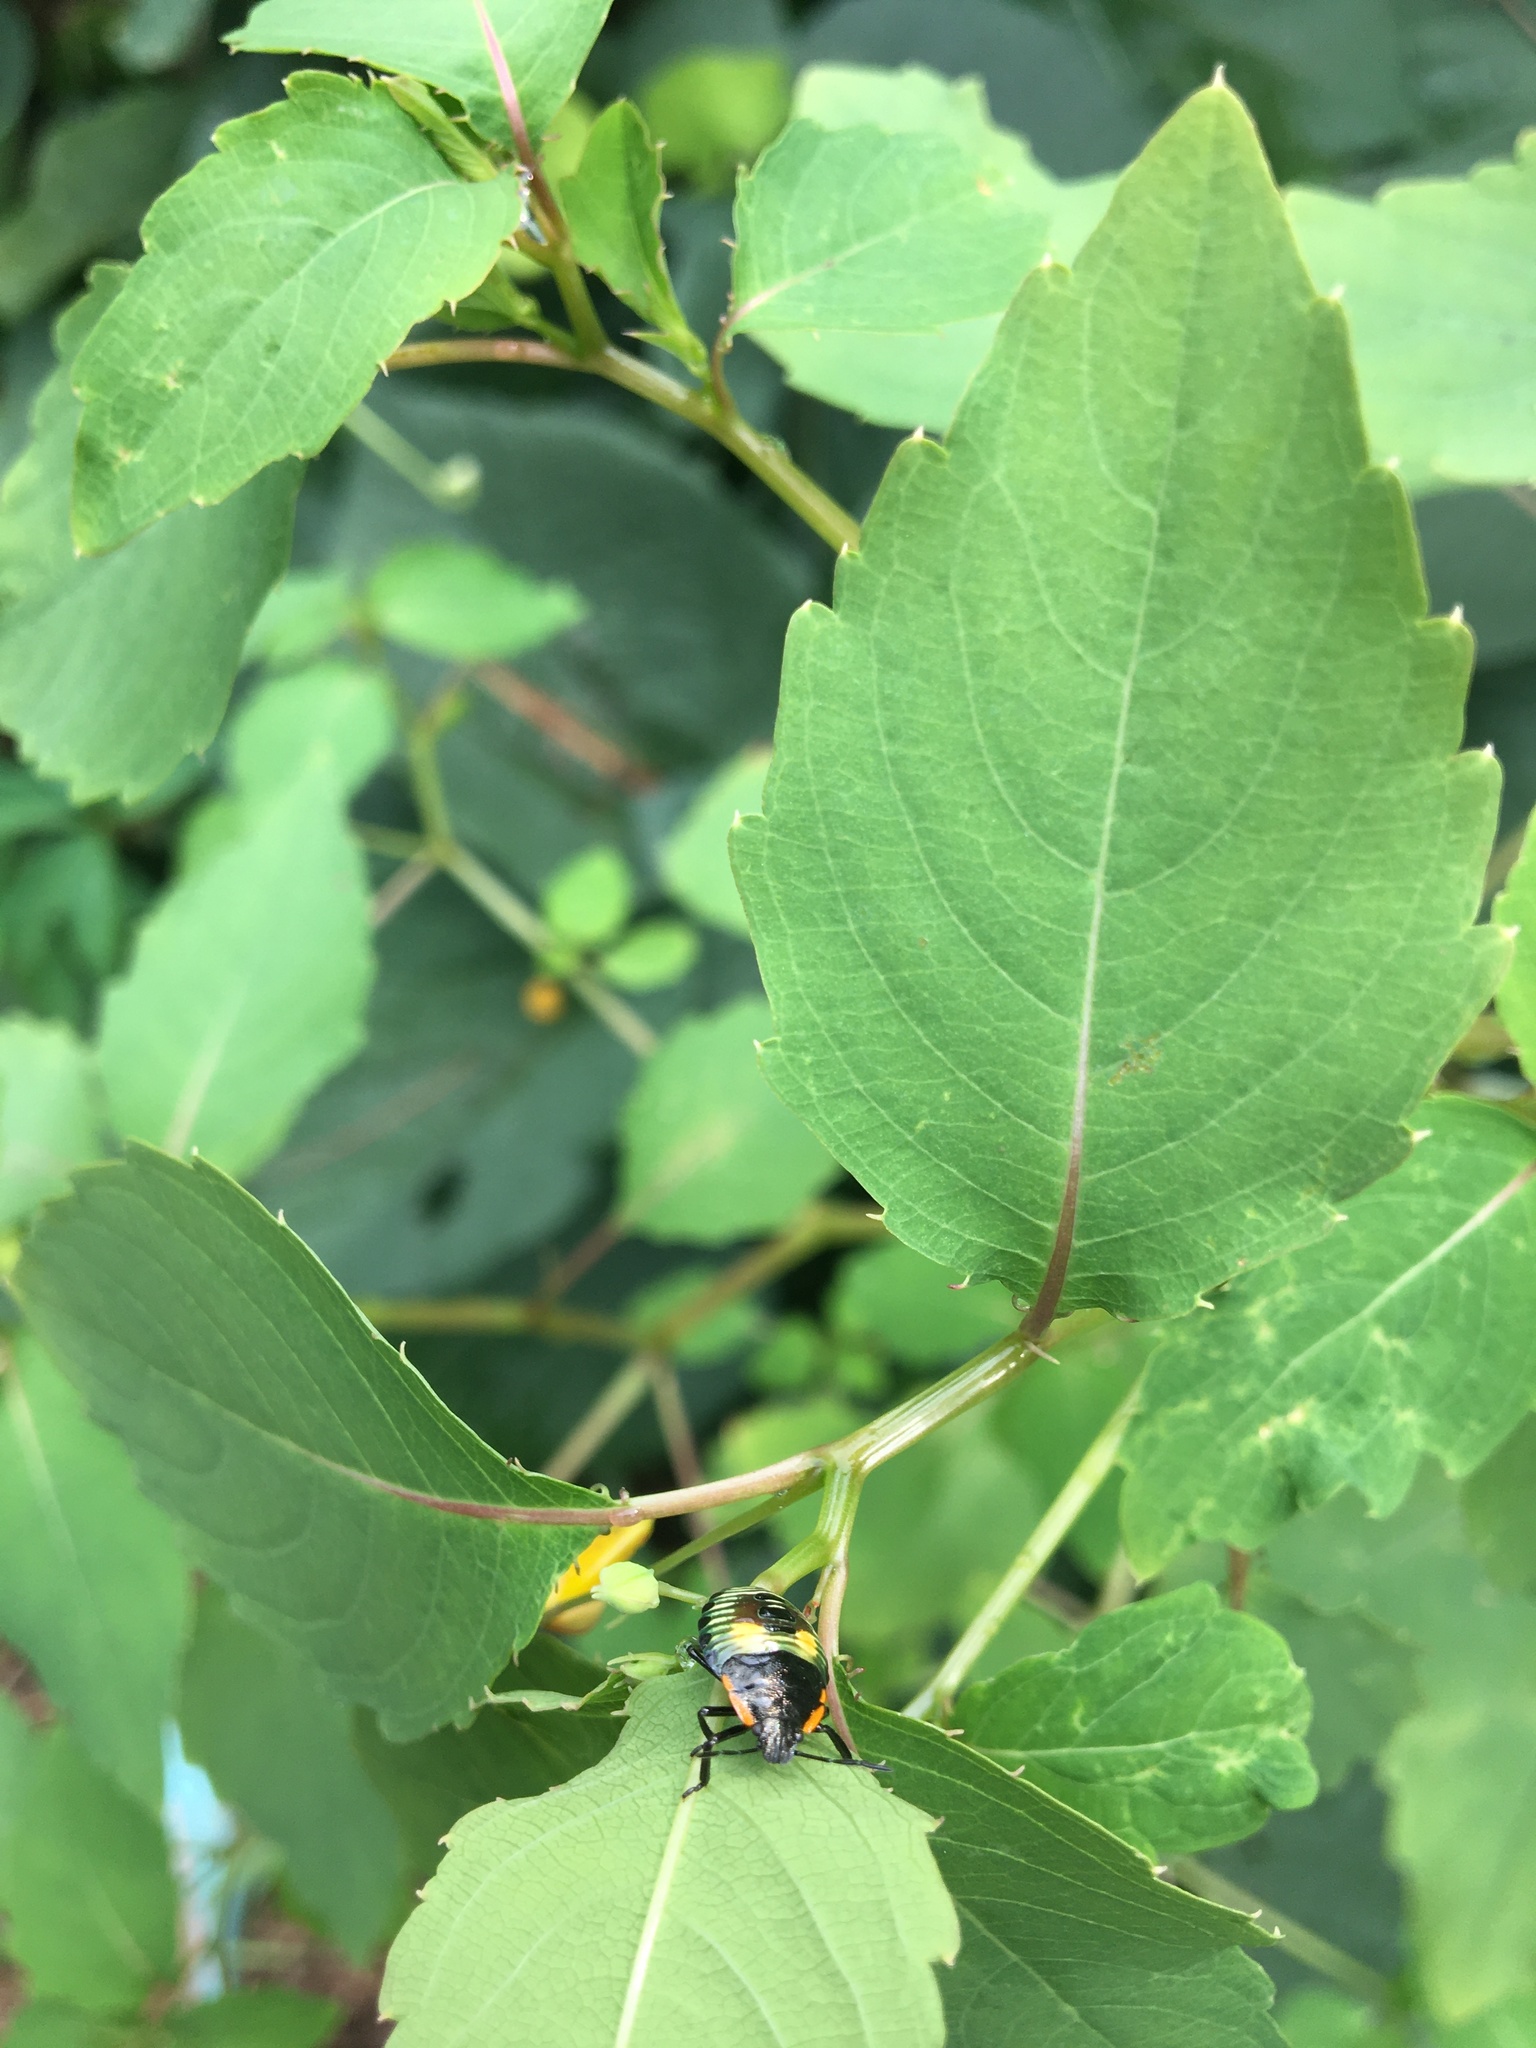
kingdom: Animalia
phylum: Arthropoda
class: Insecta
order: Hemiptera
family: Pentatomidae
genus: Chinavia
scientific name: Chinavia hilaris
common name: Green stink bug
